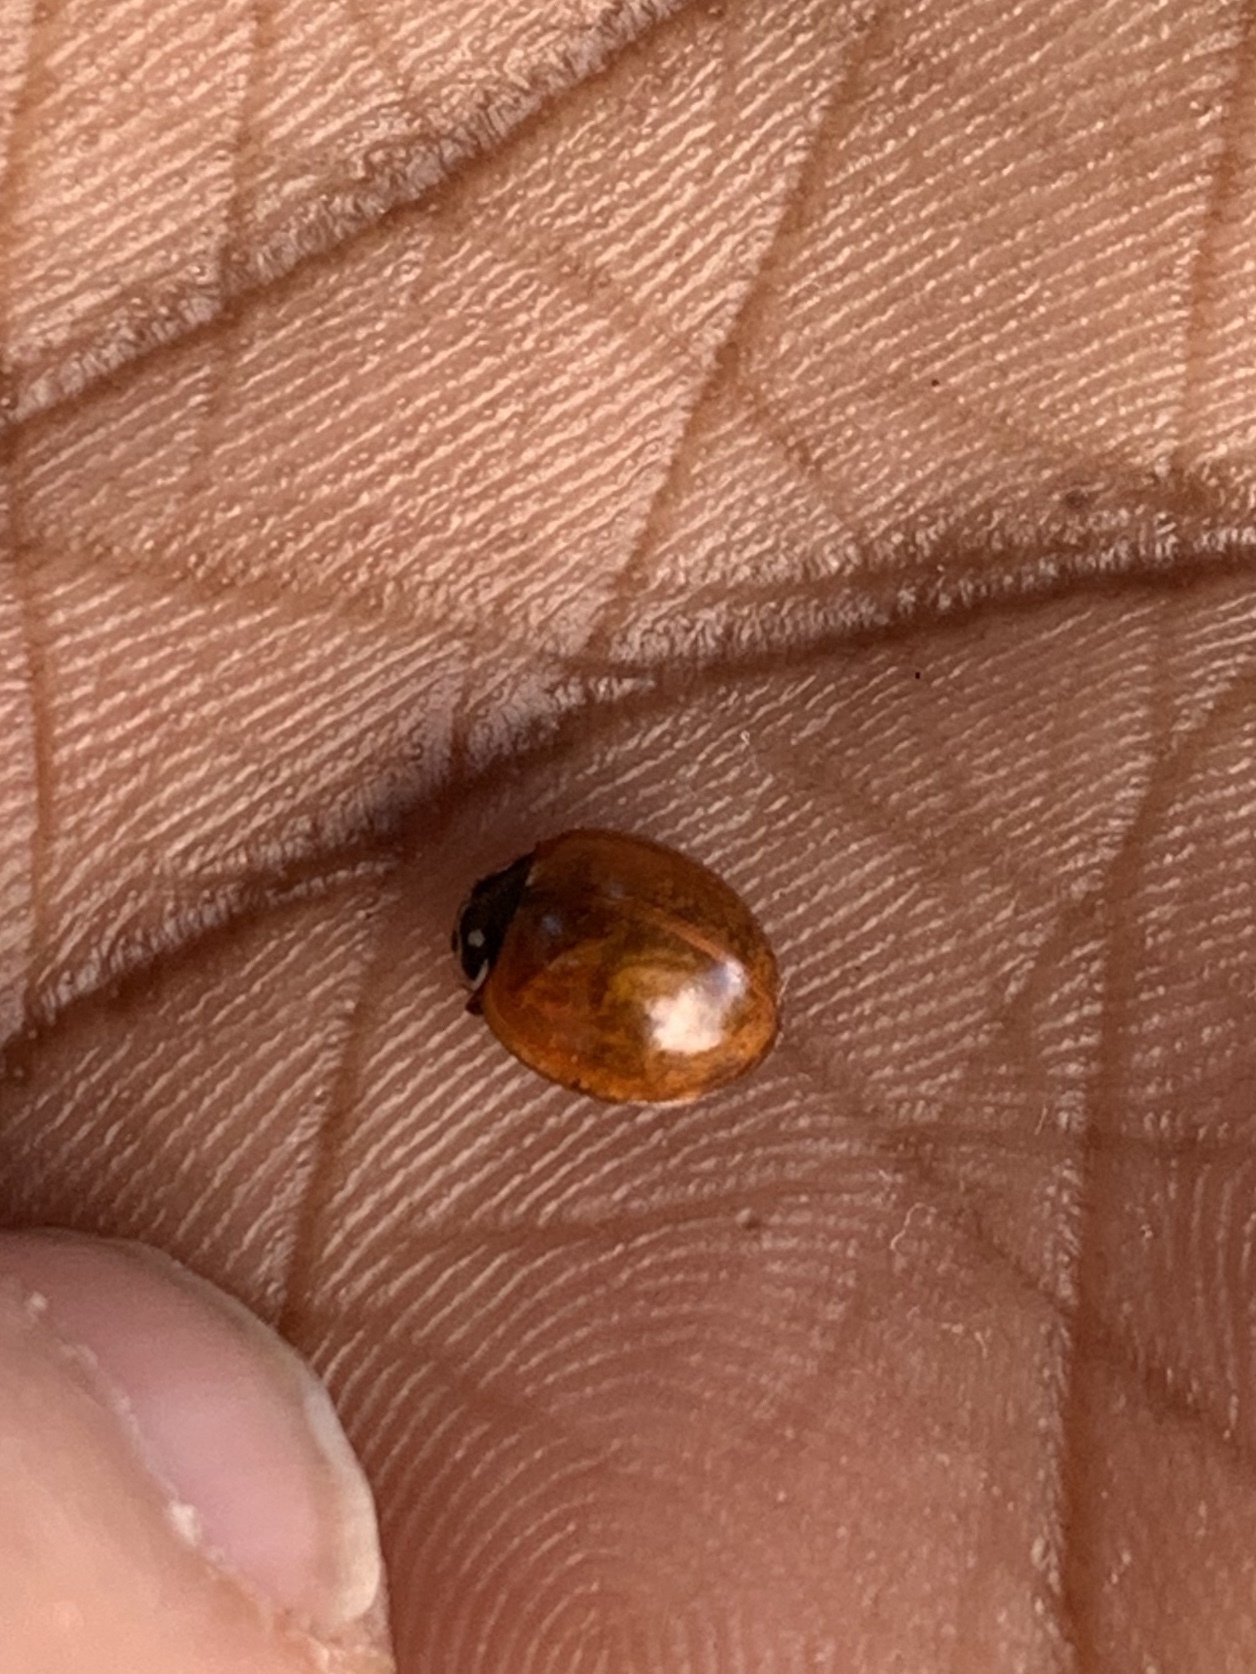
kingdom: Animalia
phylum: Arthropoda
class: Insecta
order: Coleoptera
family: Coccinellidae
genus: Cycloneda
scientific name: Cycloneda sanguinea
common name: Ladybird beetle
